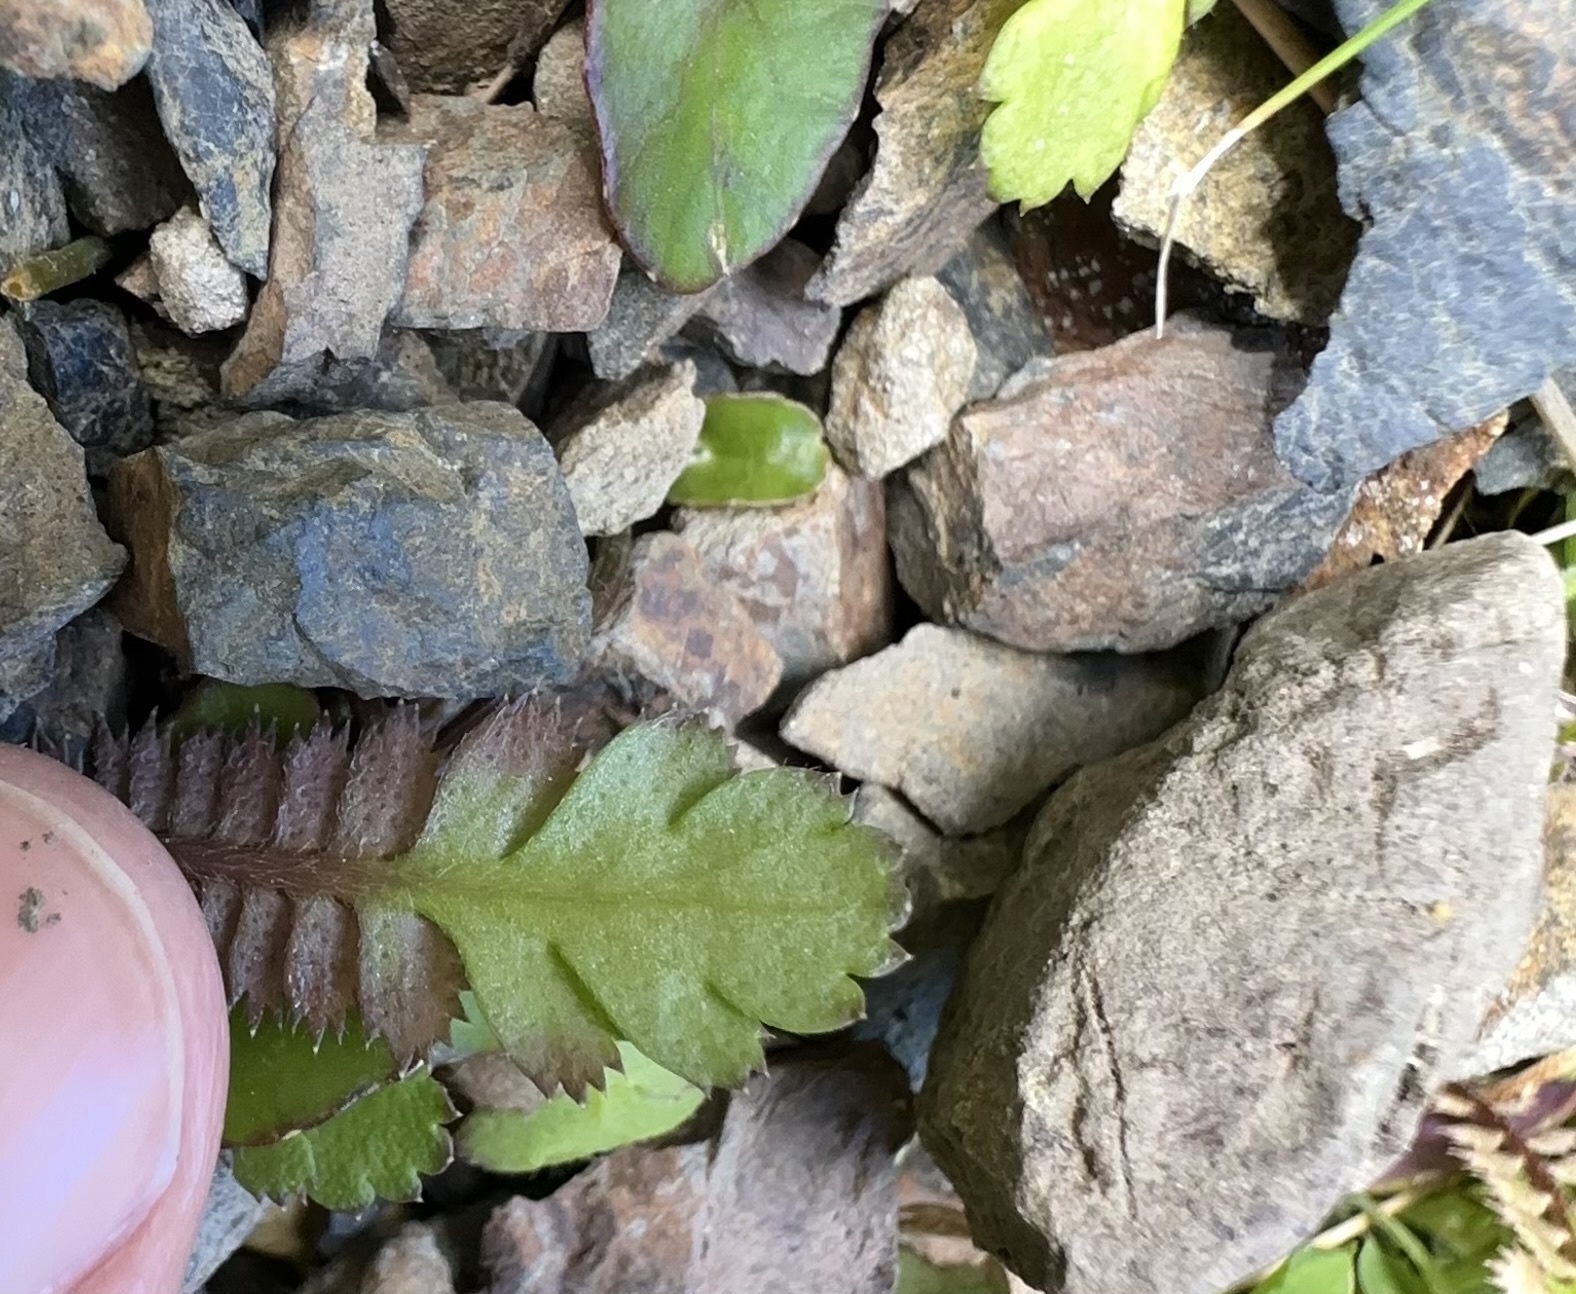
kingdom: Plantae
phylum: Tracheophyta
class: Magnoliopsida
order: Asterales
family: Asteraceae
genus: Leptinella
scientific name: Leptinella squalida
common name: New zealand brass-buttons
